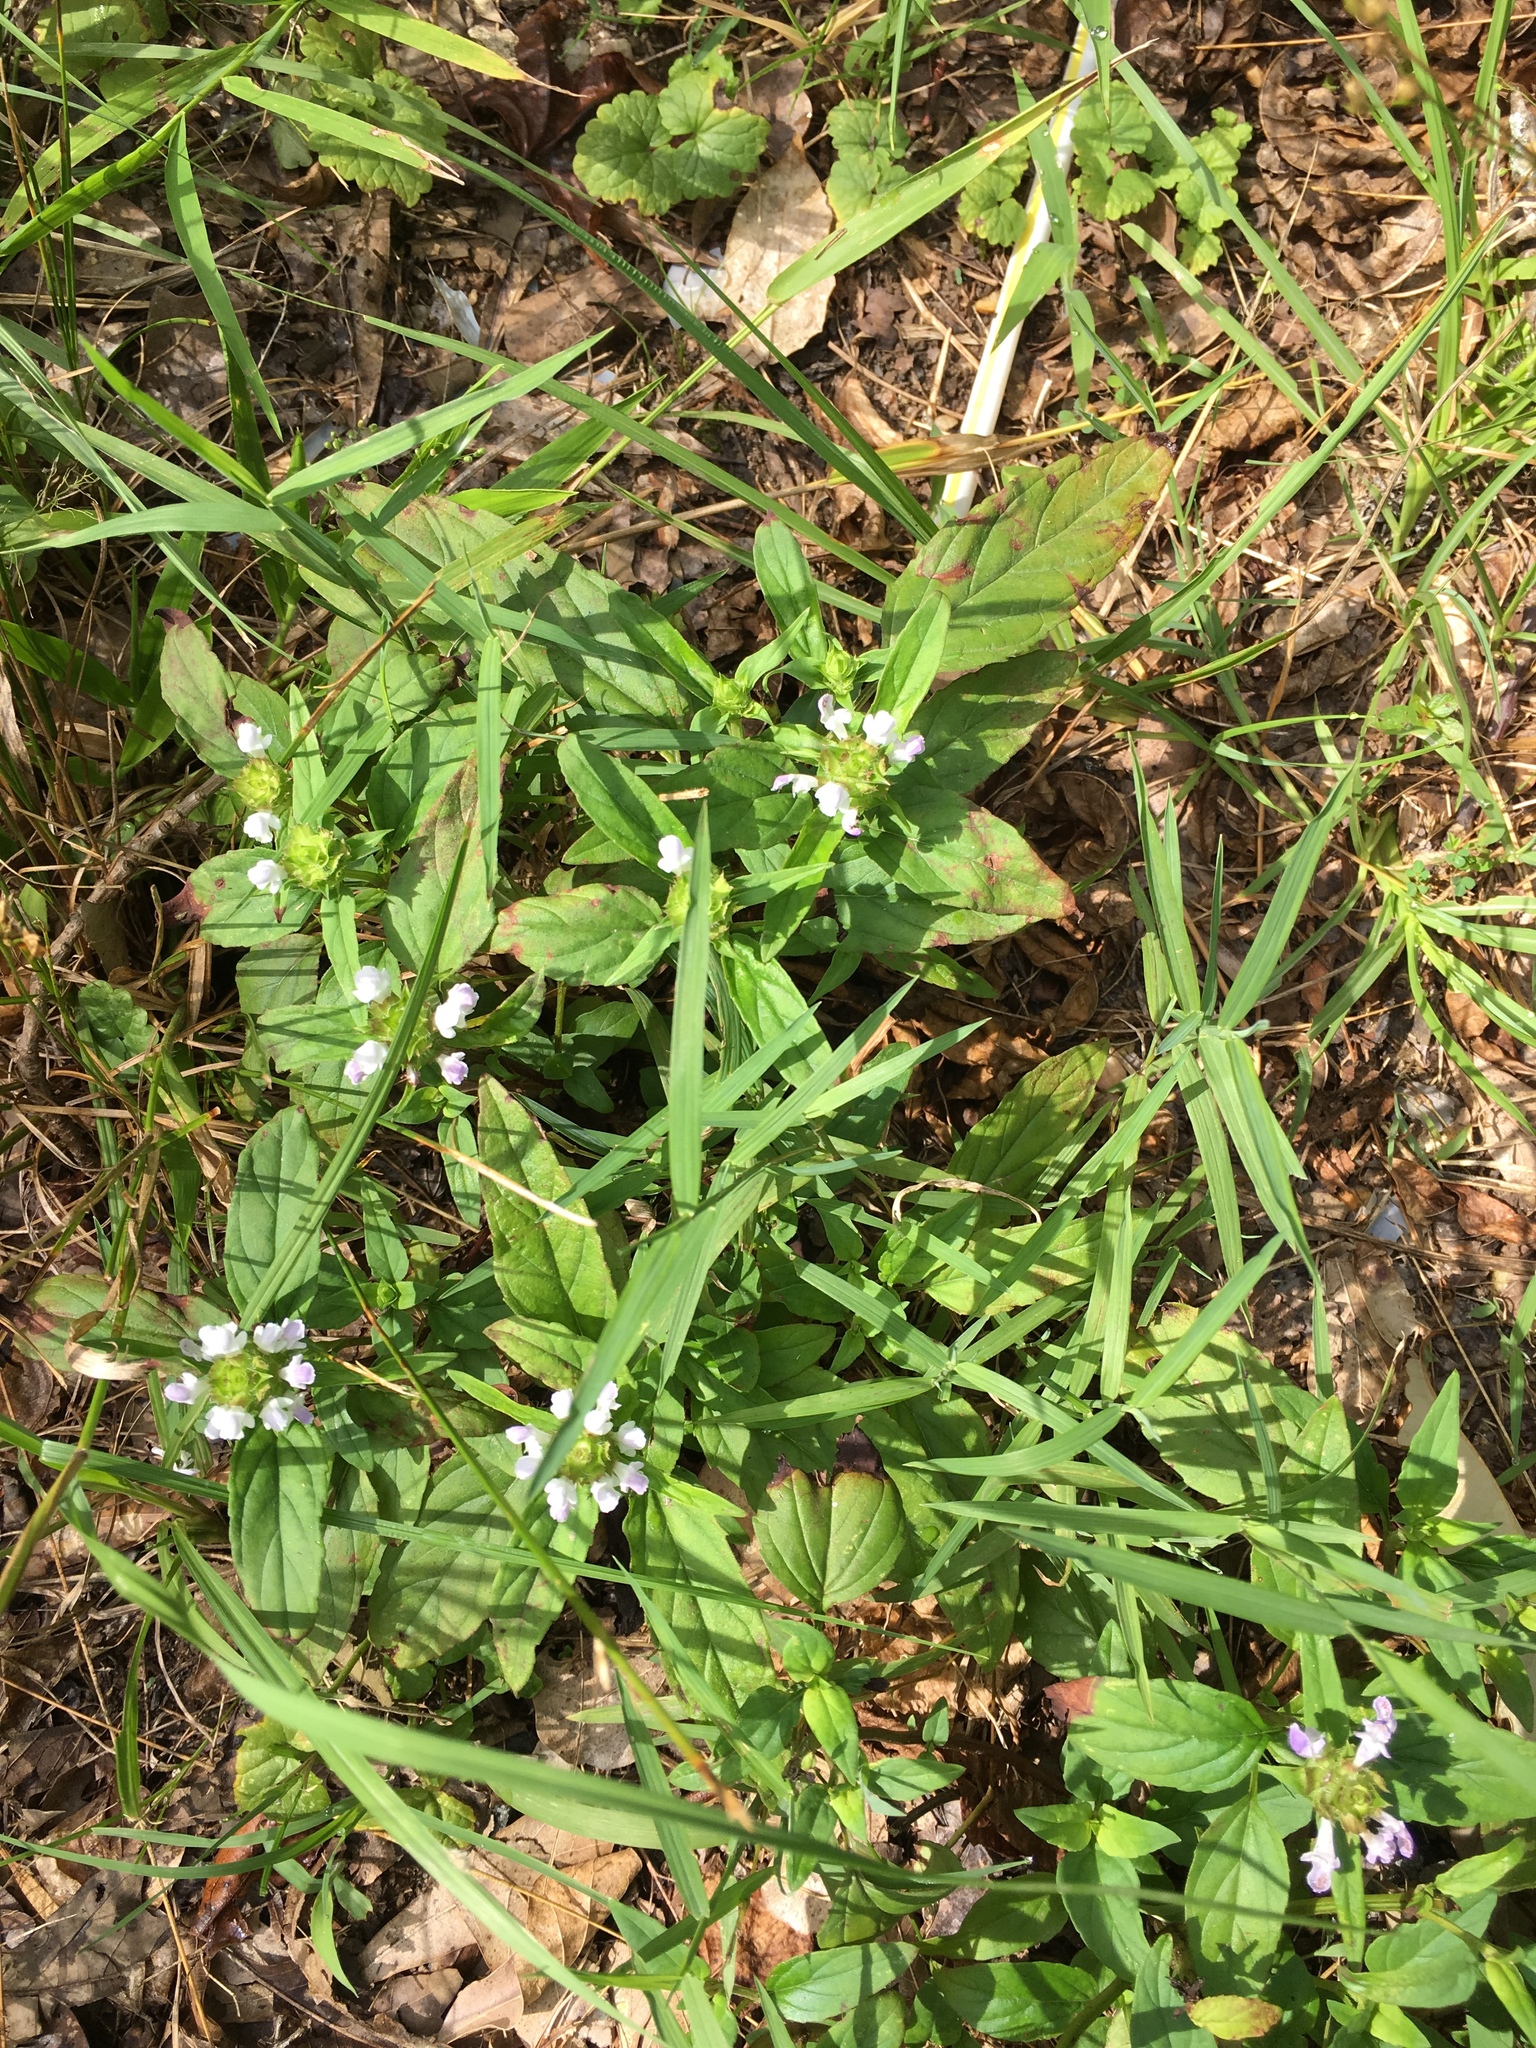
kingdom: Plantae
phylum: Tracheophyta
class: Magnoliopsida
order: Lamiales
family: Lamiaceae
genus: Prunella
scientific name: Prunella vulgaris
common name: Heal-all
